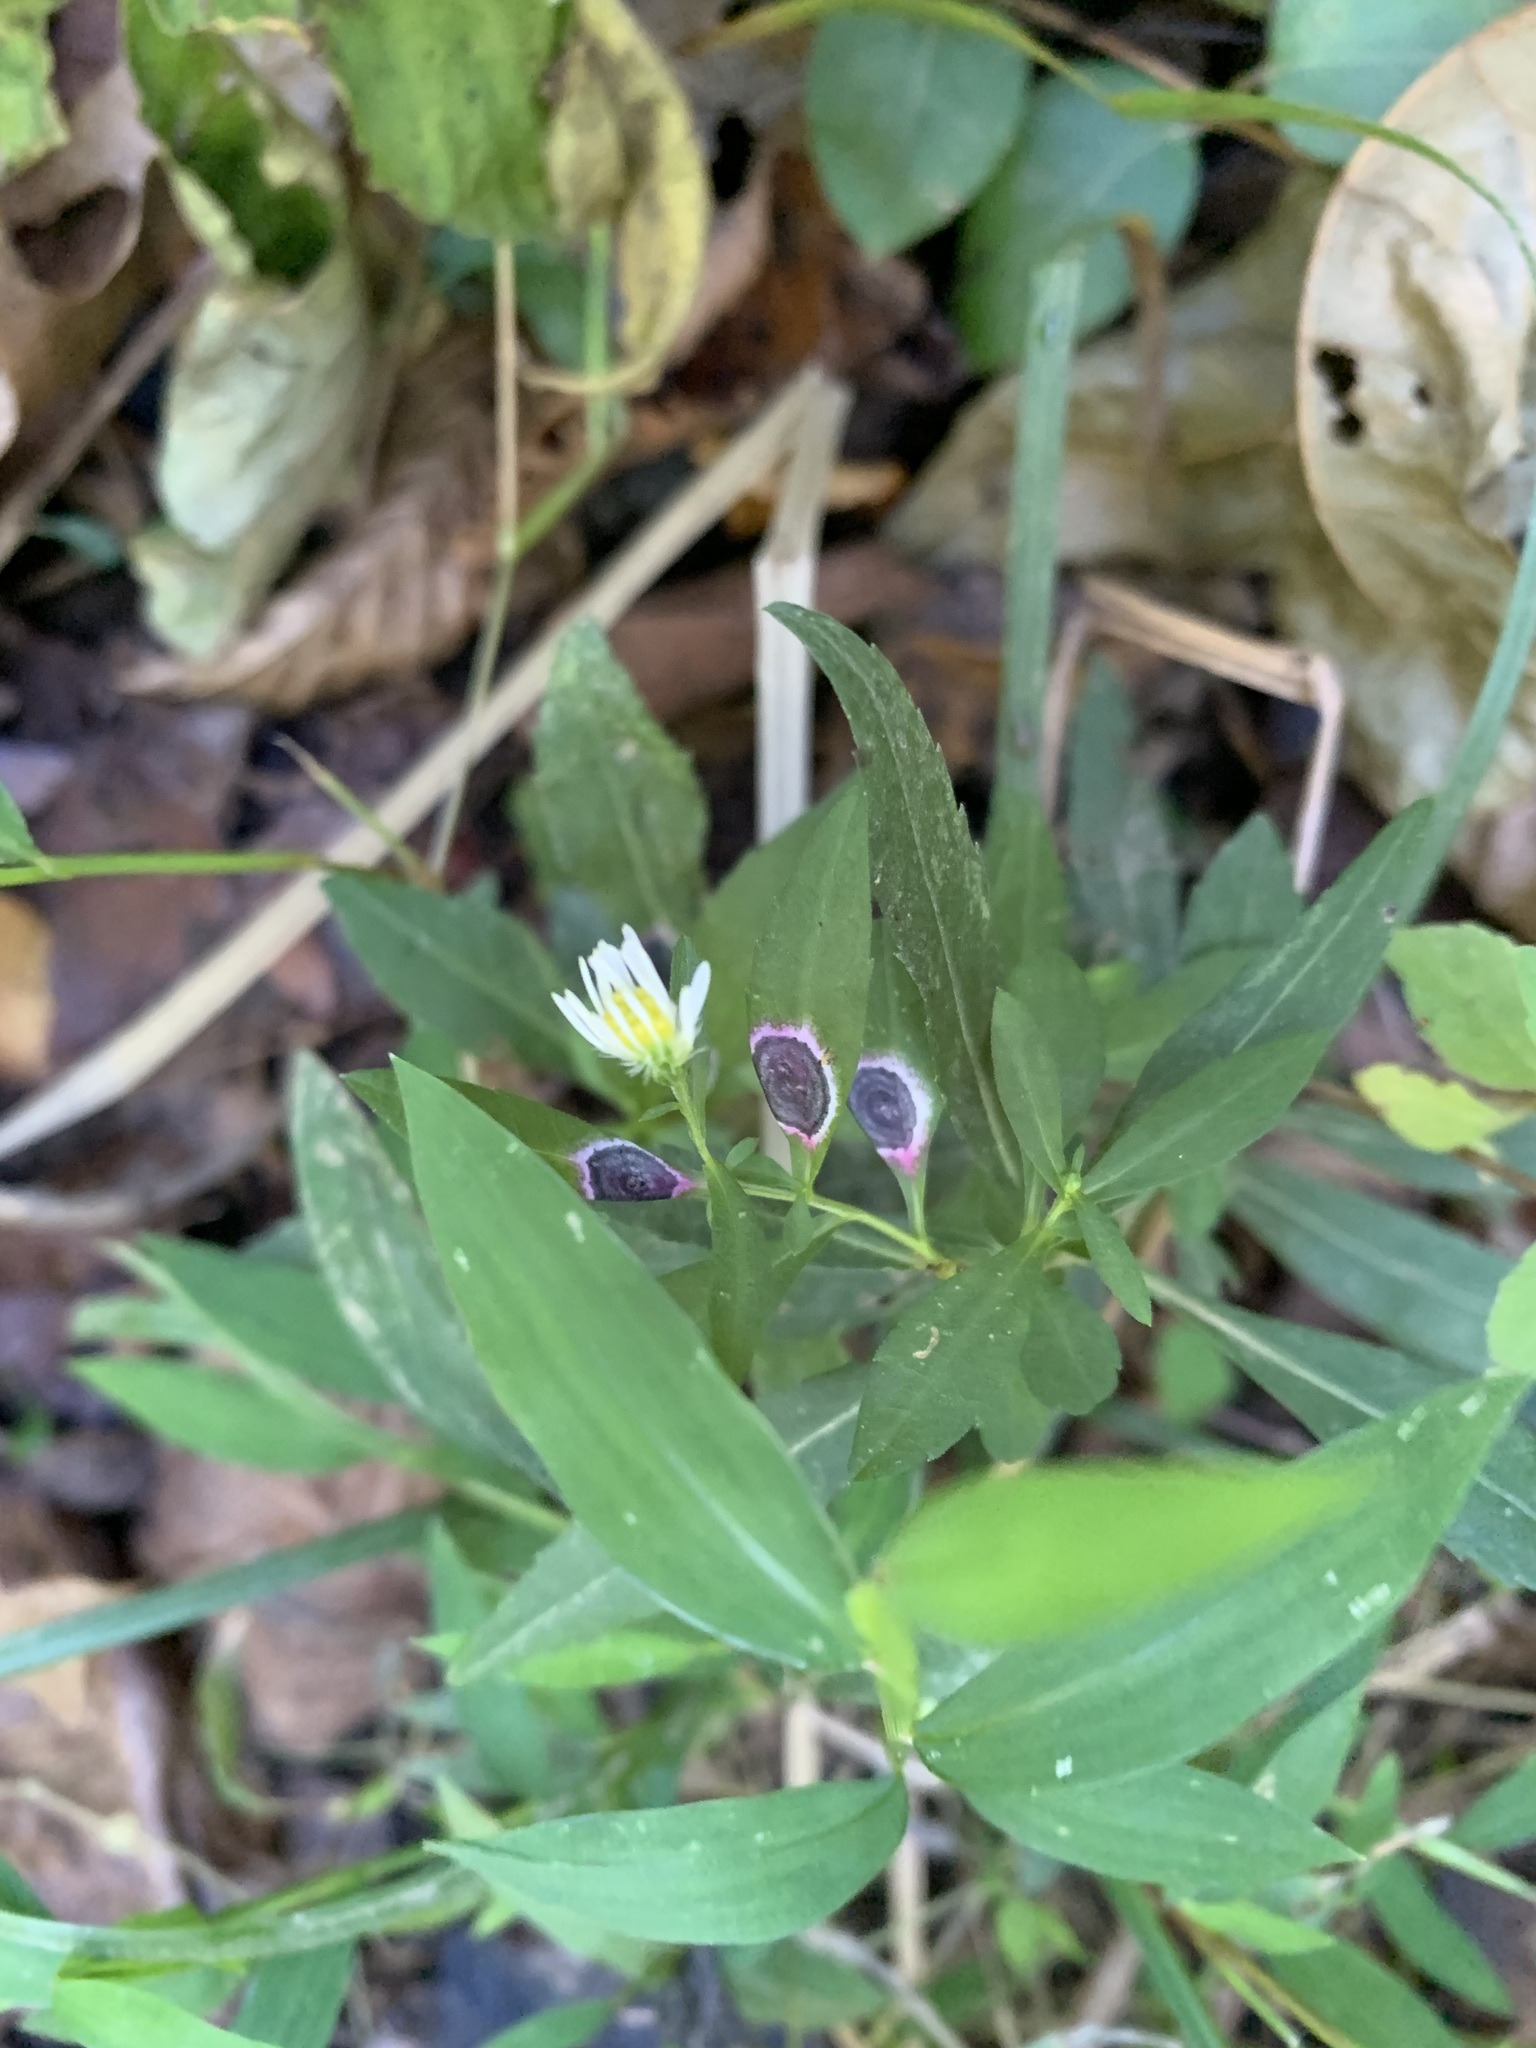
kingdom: Animalia
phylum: Arthropoda
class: Insecta
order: Diptera
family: Cecidomyiidae
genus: Asteromyia
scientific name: Asteromyia laeviana
